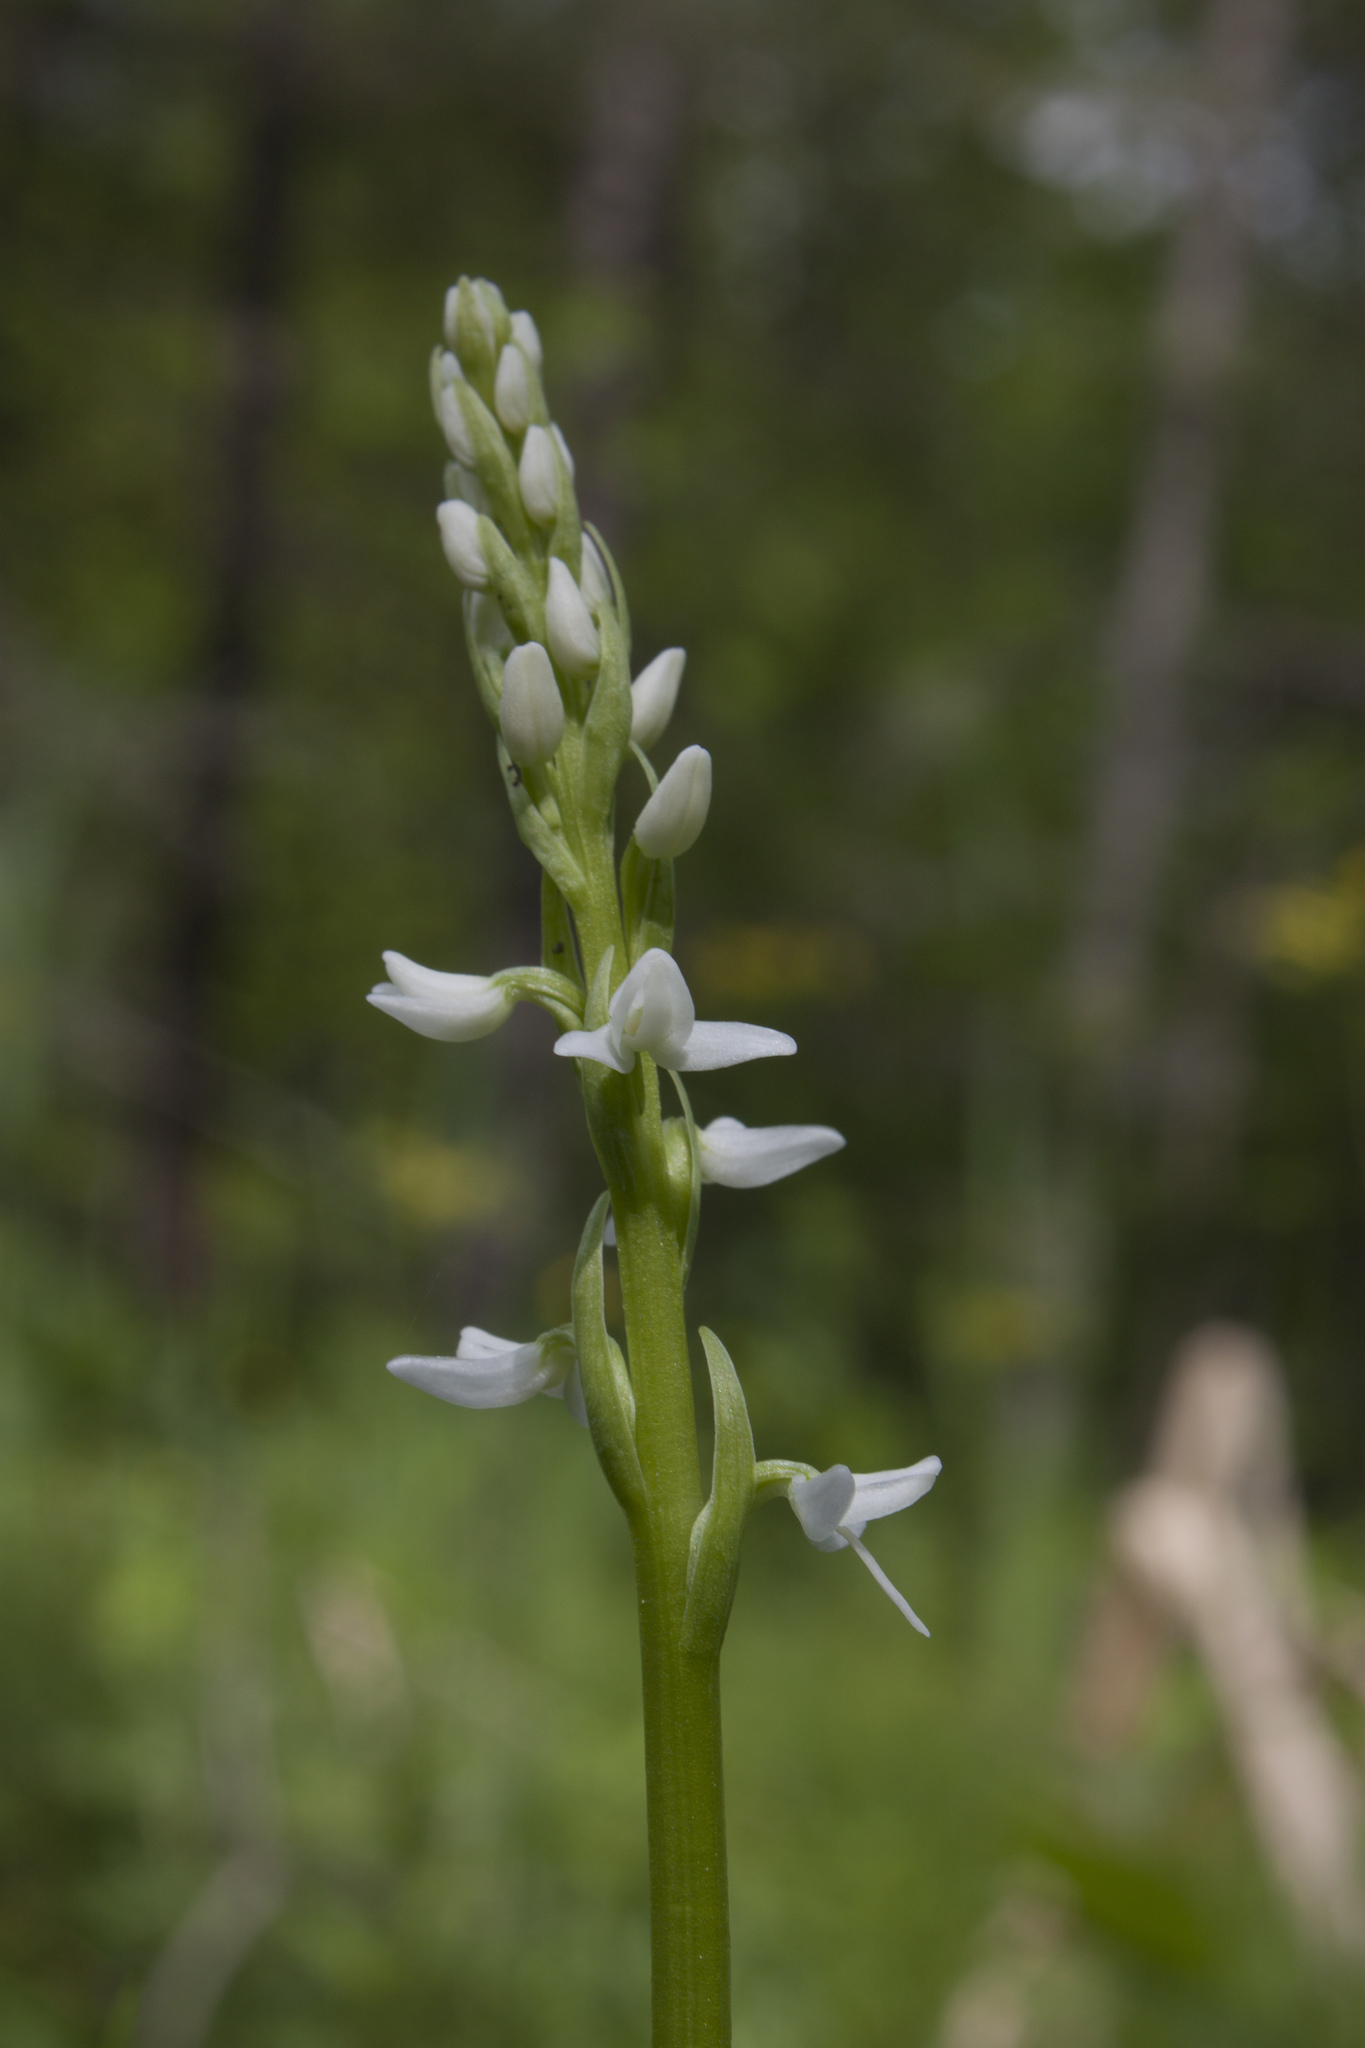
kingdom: Plantae
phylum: Tracheophyta
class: Liliopsida
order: Asparagales
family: Orchidaceae
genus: Platanthera
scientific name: Platanthera dilatata
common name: Bog candles
